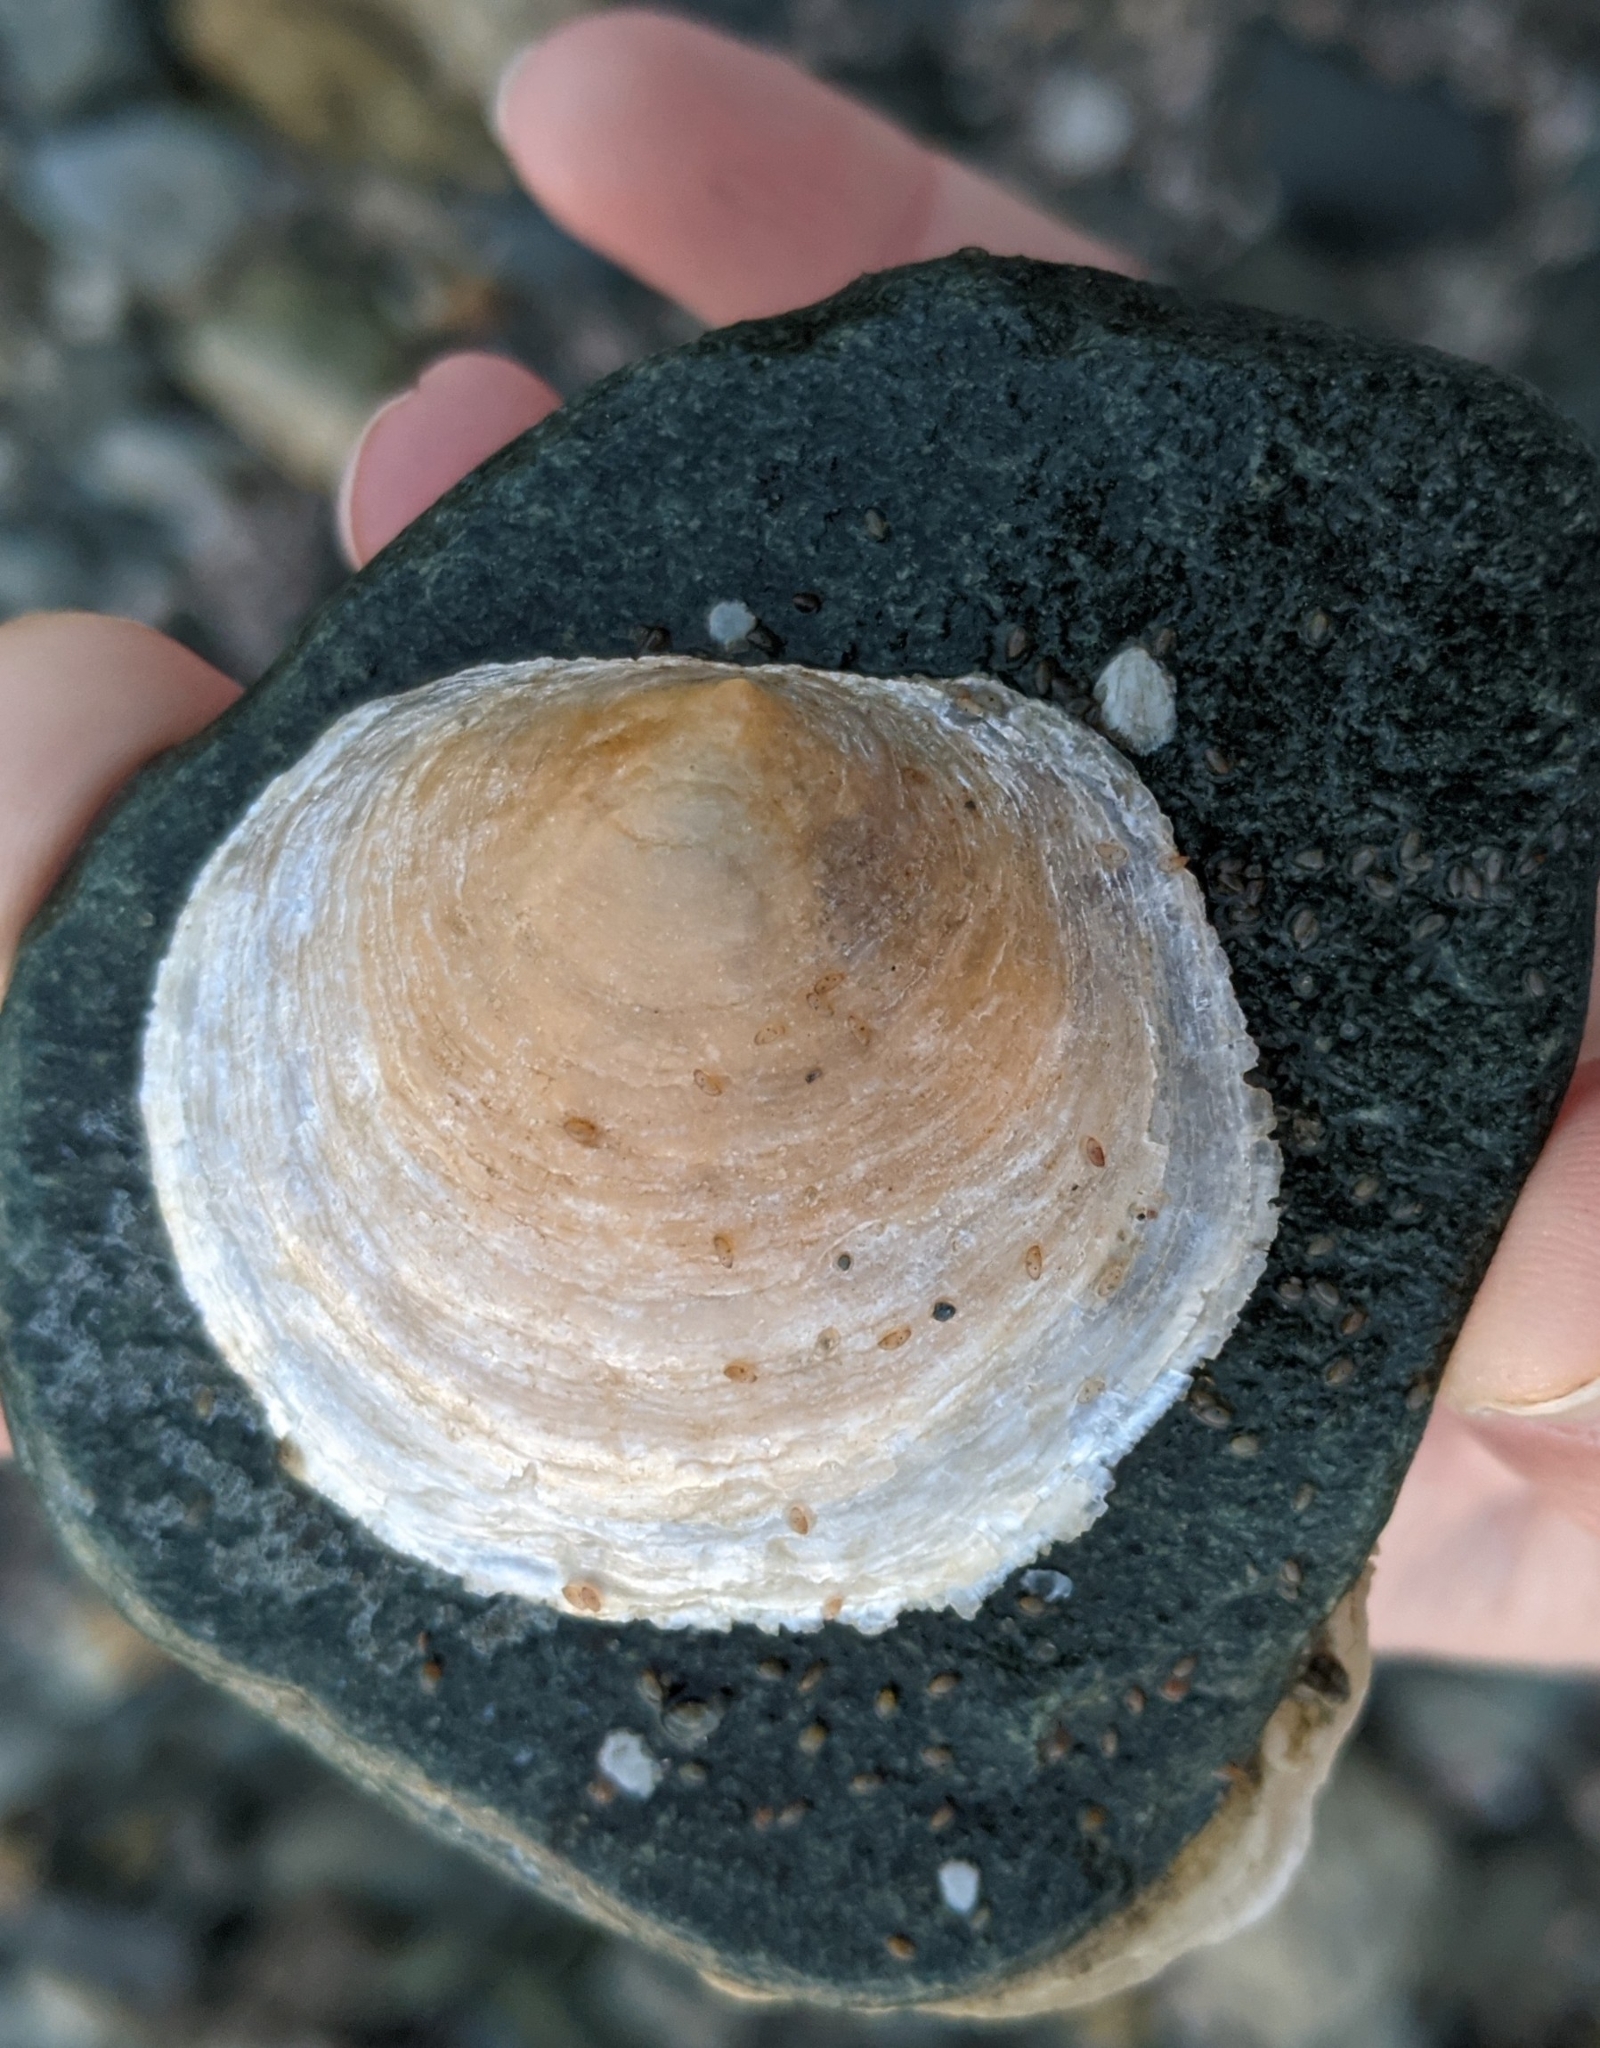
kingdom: Animalia
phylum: Mollusca
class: Bivalvia
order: Pectinida
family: Anomiidae
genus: Anomia
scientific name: Anomia simplex
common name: Common jingle shell
